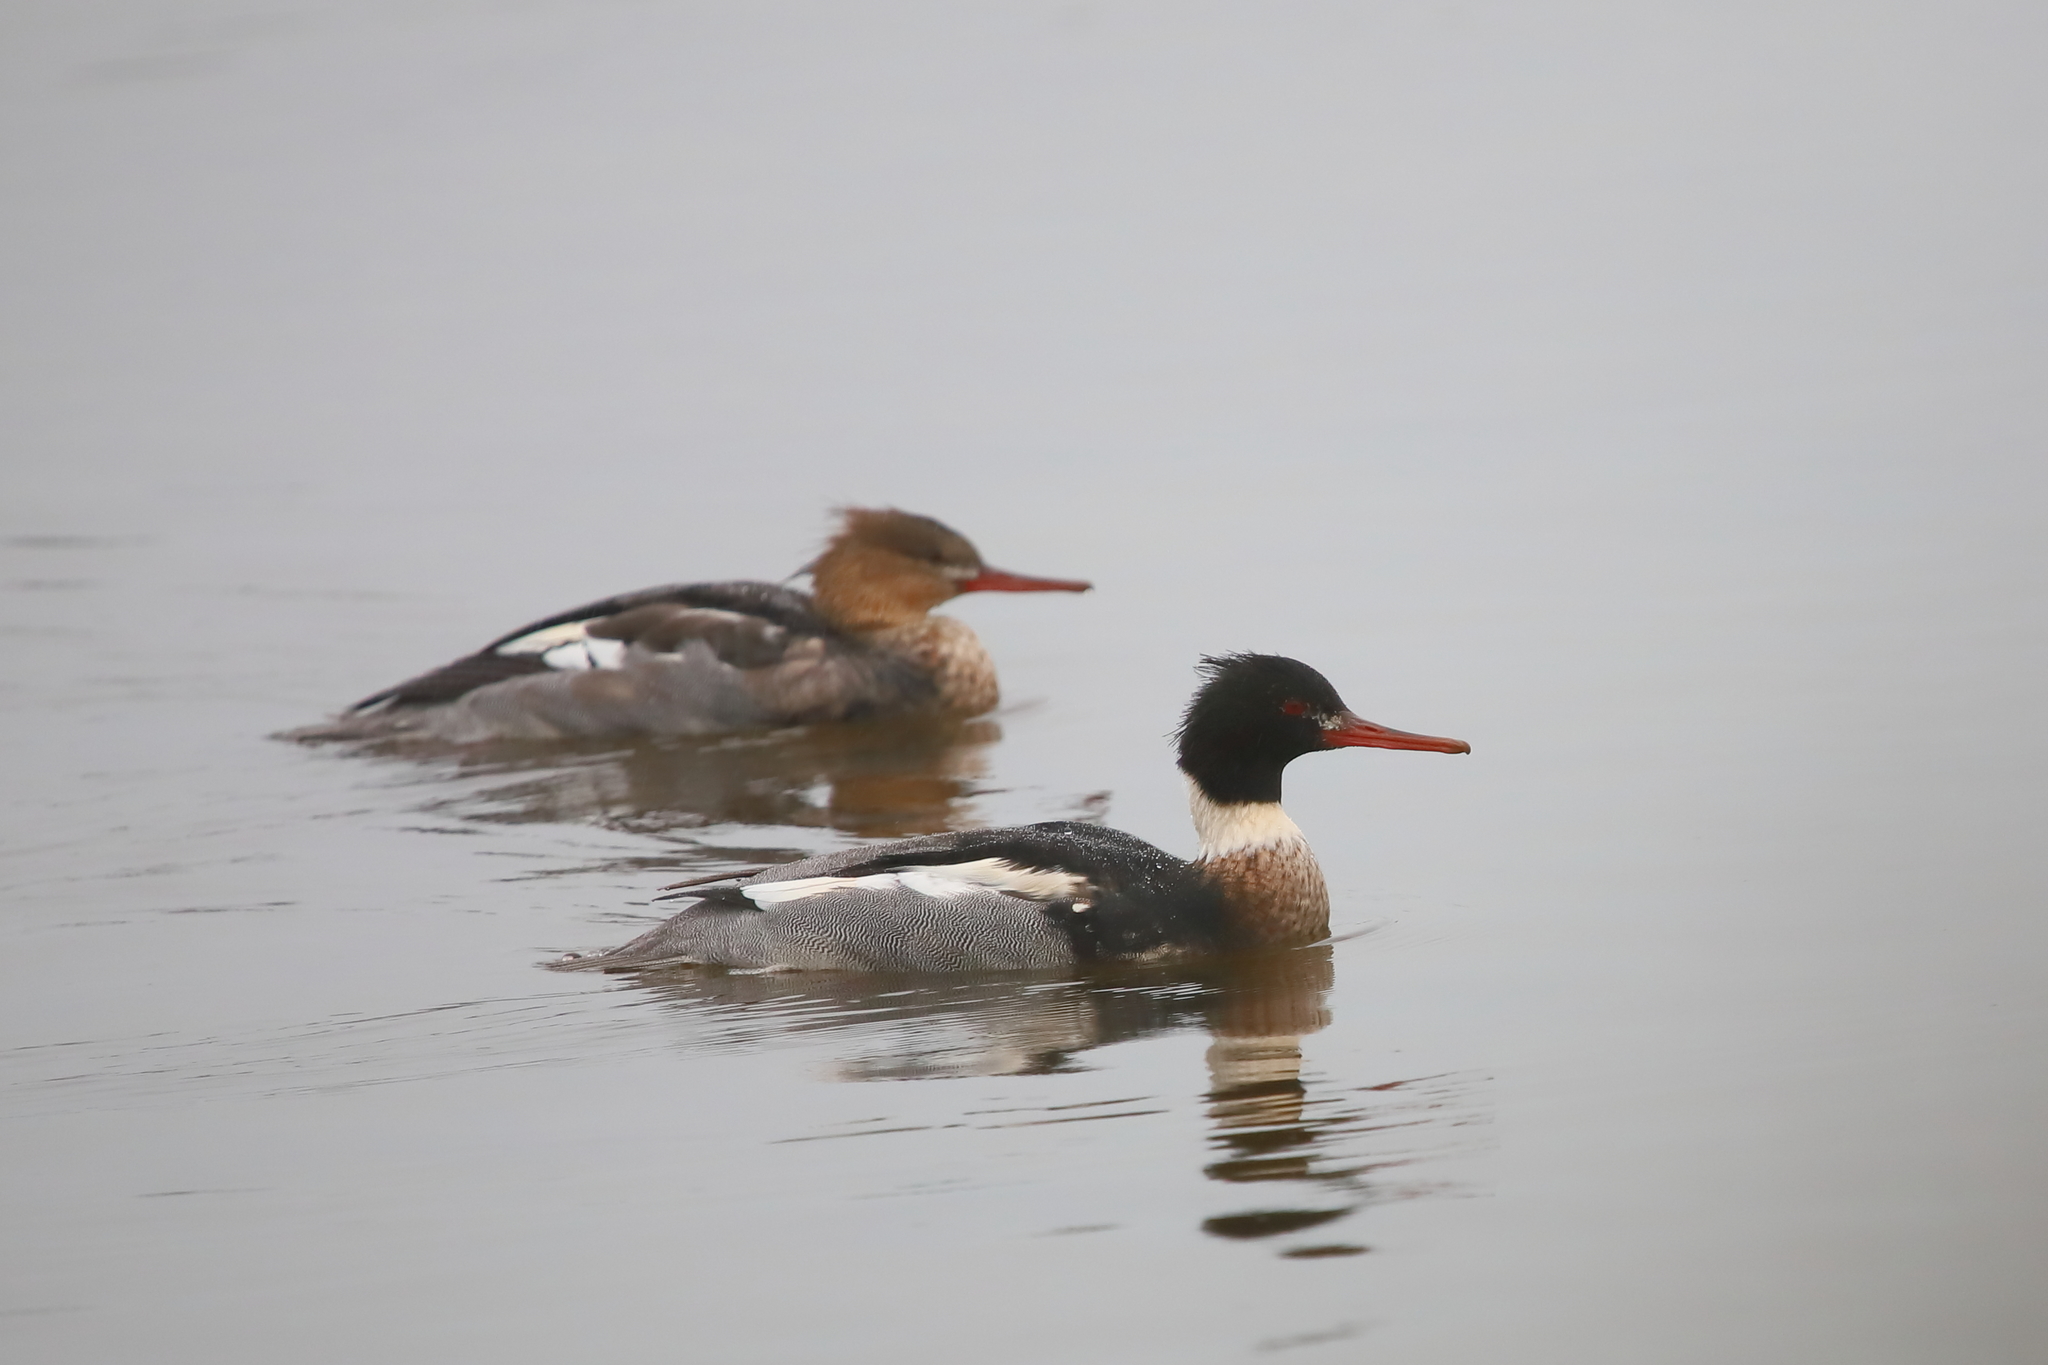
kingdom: Animalia
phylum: Chordata
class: Aves
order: Anseriformes
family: Anatidae
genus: Mergus
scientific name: Mergus serrator
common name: Red-breasted merganser
